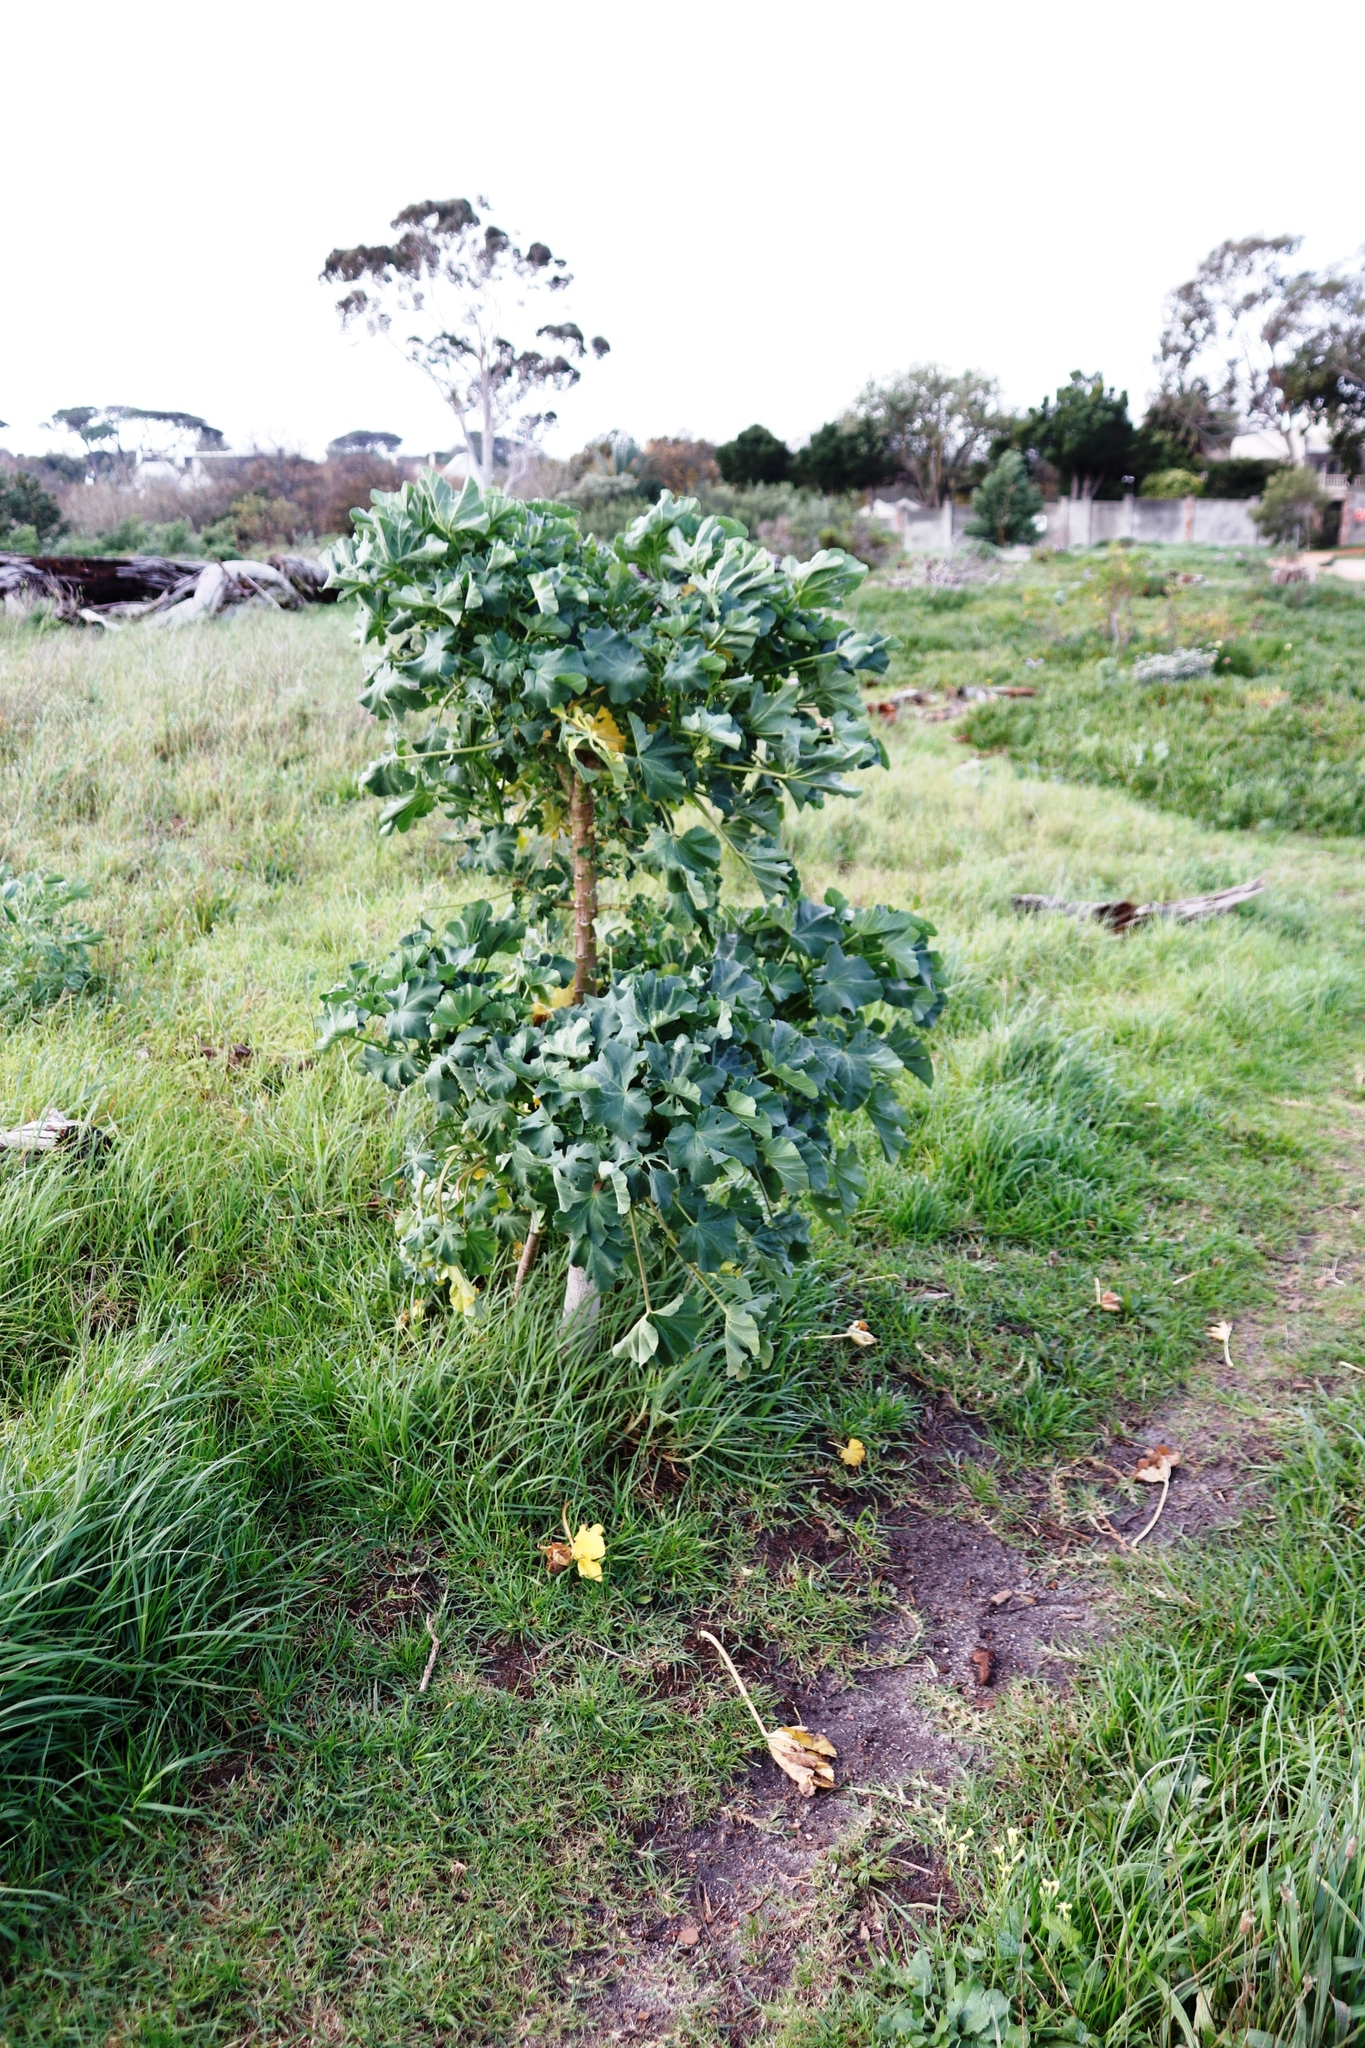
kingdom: Plantae
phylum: Tracheophyta
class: Magnoliopsida
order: Malvales
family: Malvaceae
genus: Malva
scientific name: Malva arborea
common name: Tree mallow
